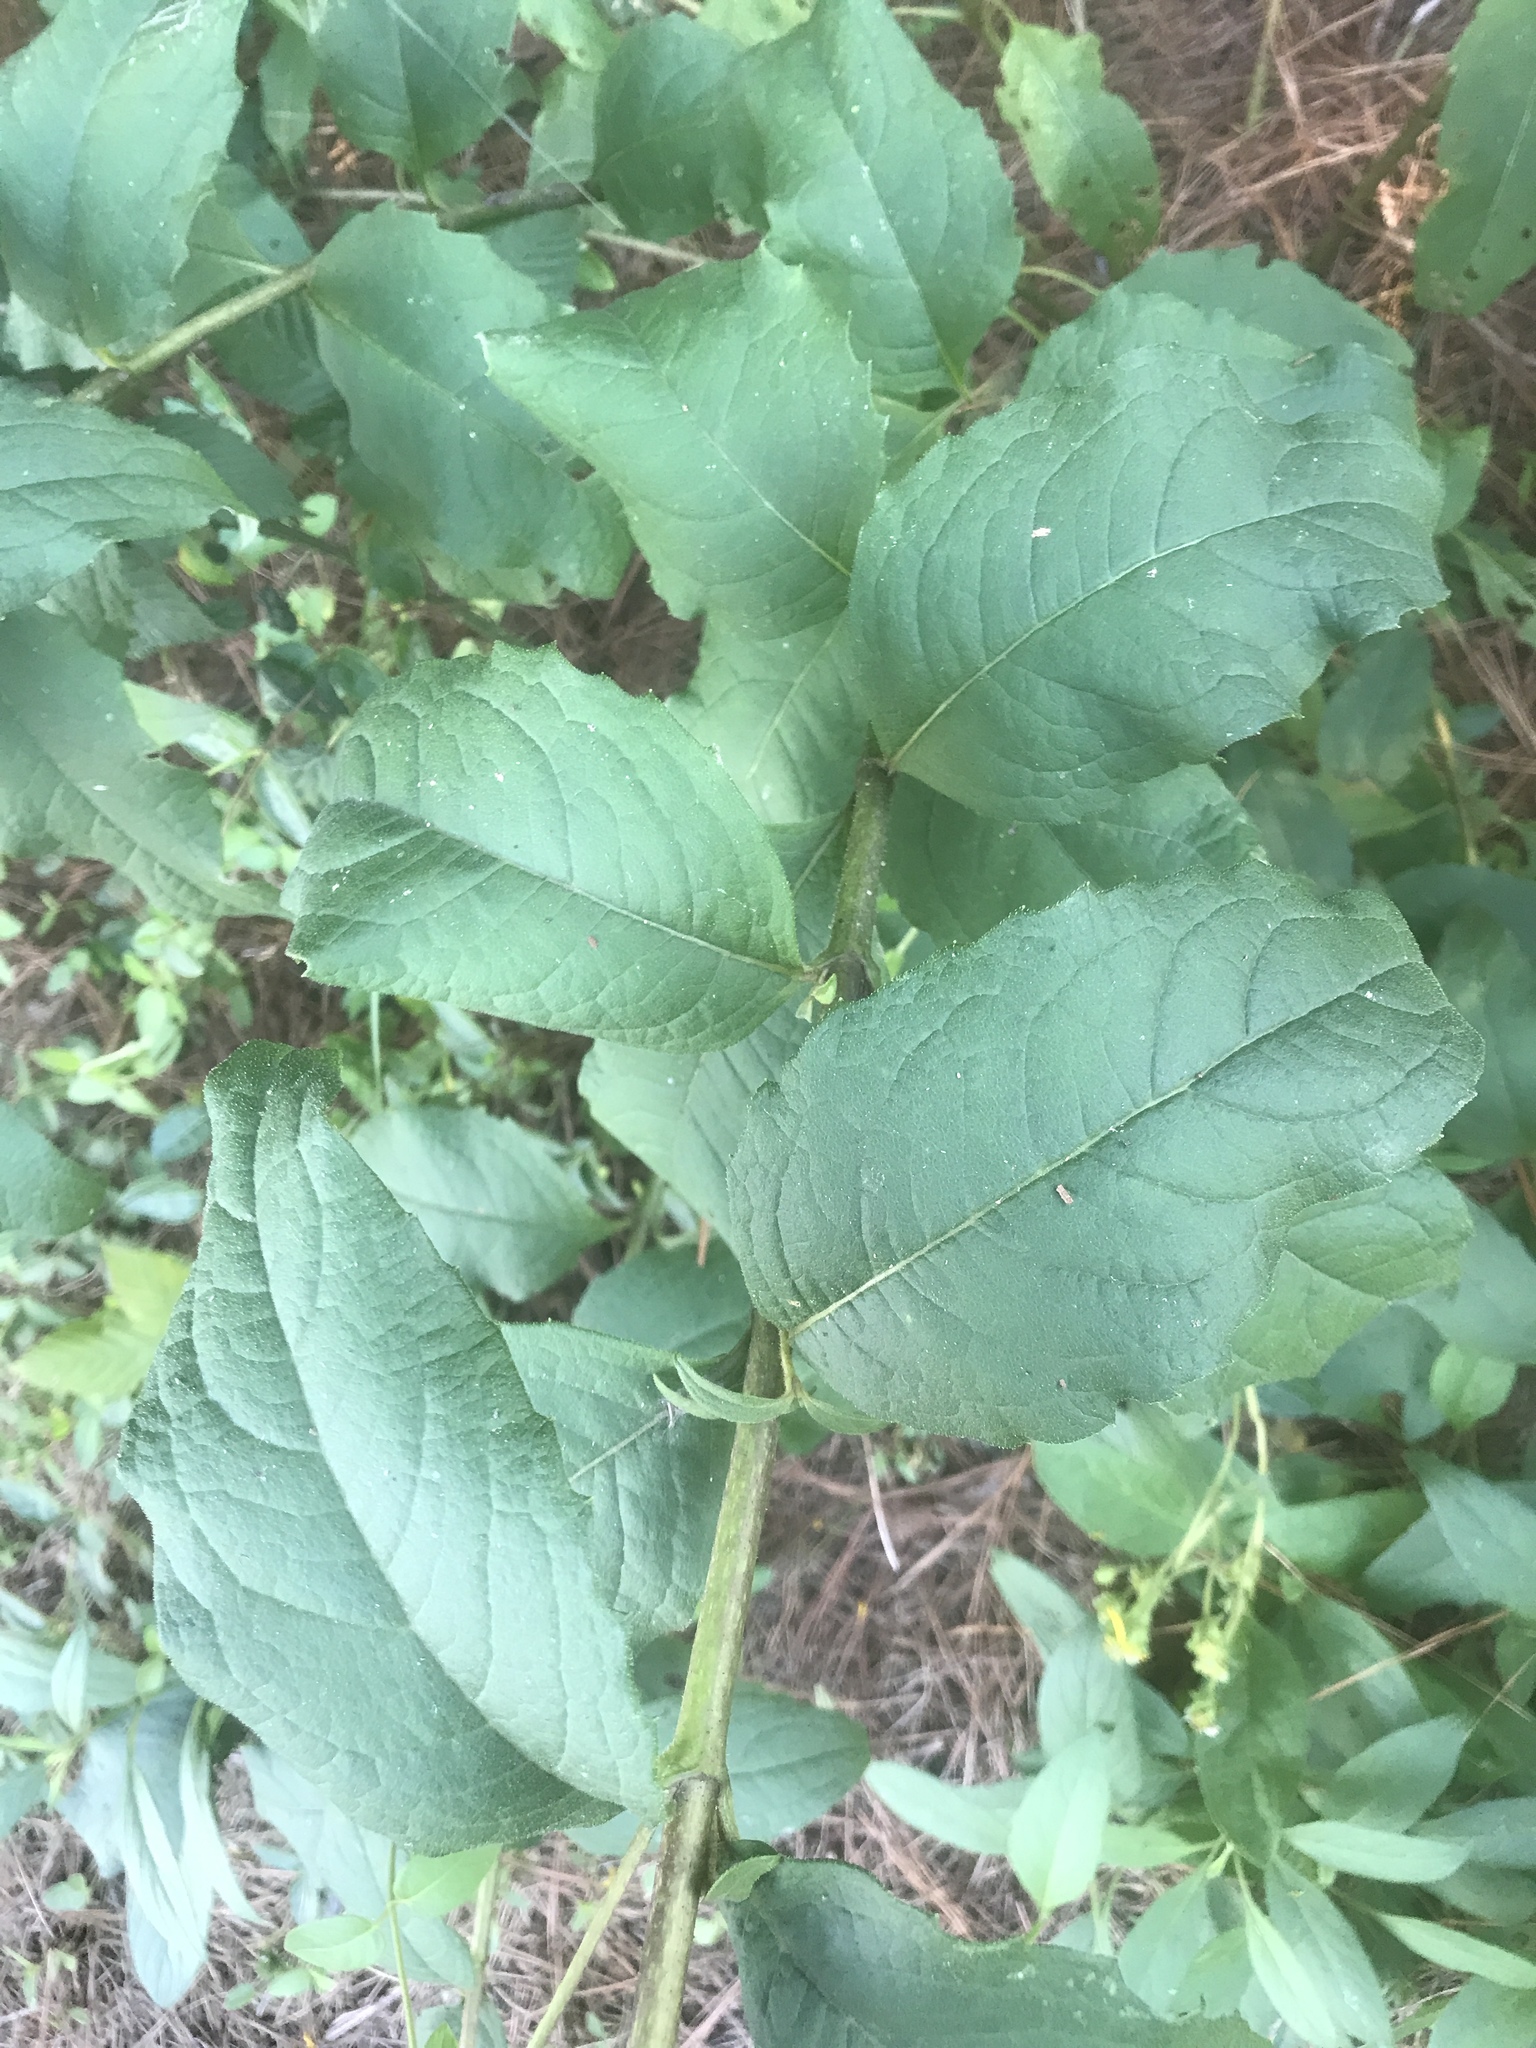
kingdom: Plantae
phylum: Tracheophyta
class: Magnoliopsida
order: Asterales
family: Asteraceae
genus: Silphium
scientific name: Silphium asteriscus
